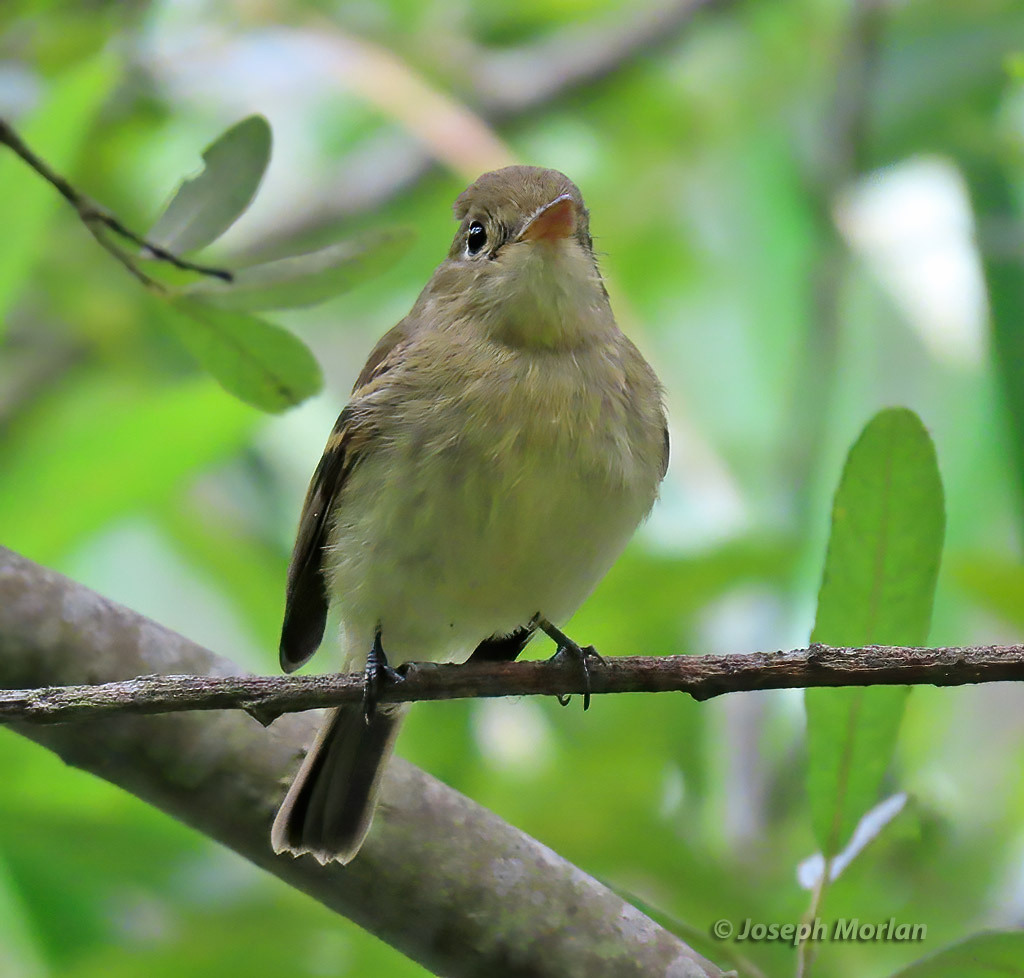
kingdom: Animalia
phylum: Chordata
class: Aves
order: Passeriformes
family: Tyrannidae
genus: Empidonax
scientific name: Empidonax difficilis
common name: Pacific-slope flycatcher
